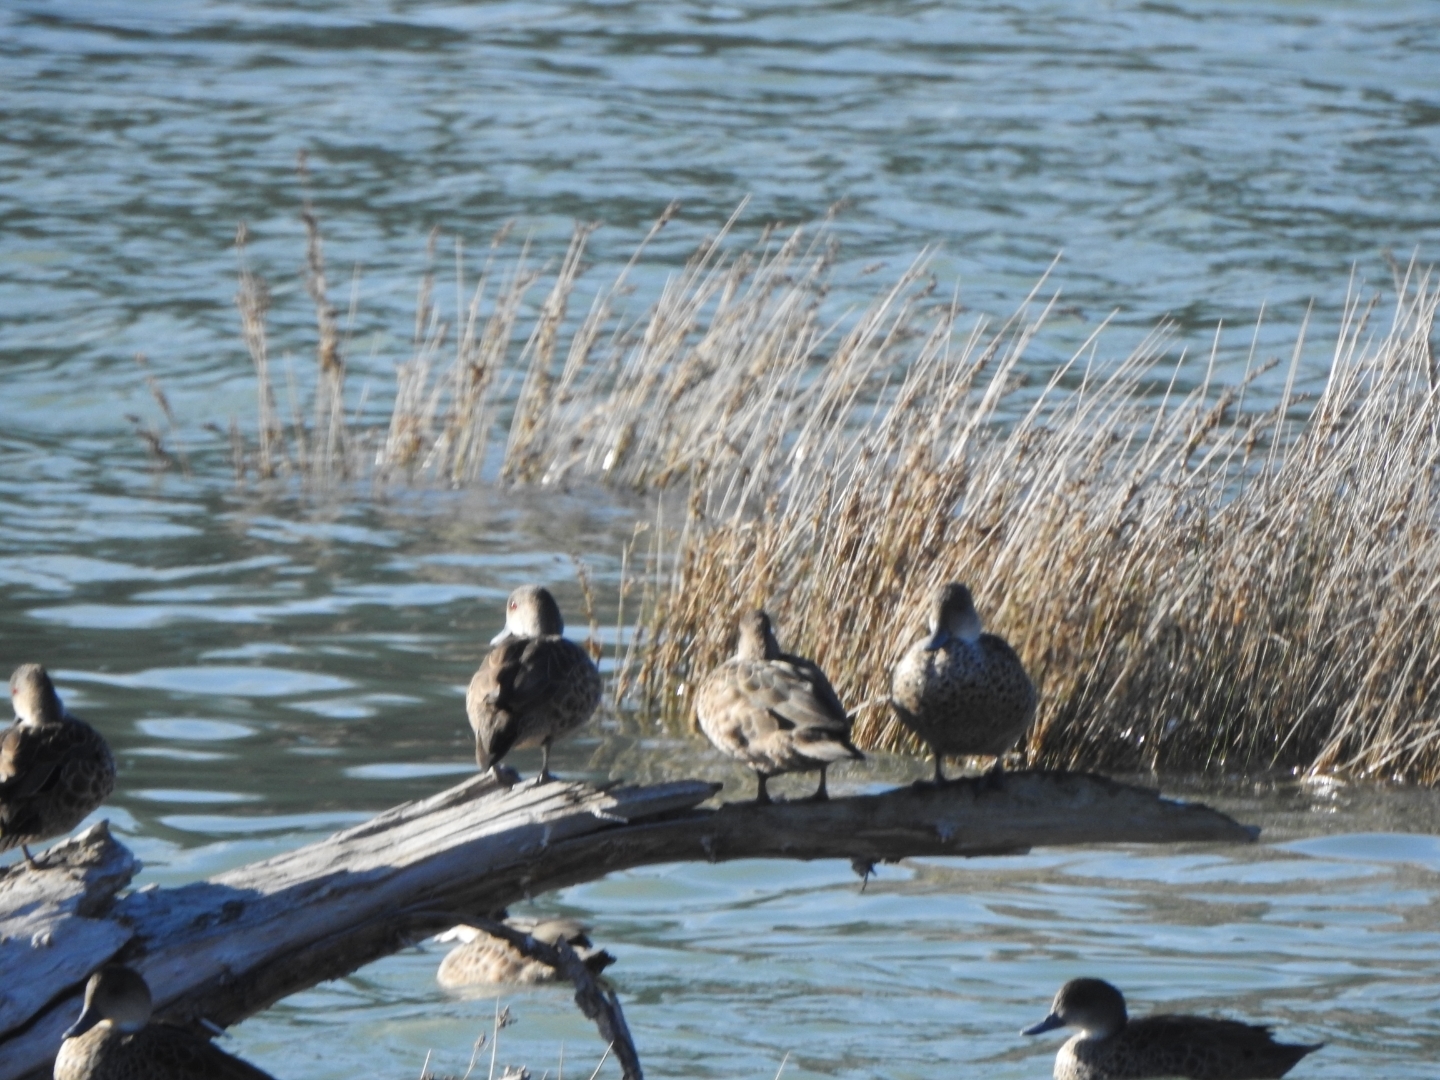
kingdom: Animalia
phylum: Chordata
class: Aves
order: Anseriformes
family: Anatidae
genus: Anas
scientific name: Anas gracilis
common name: Grey teal
